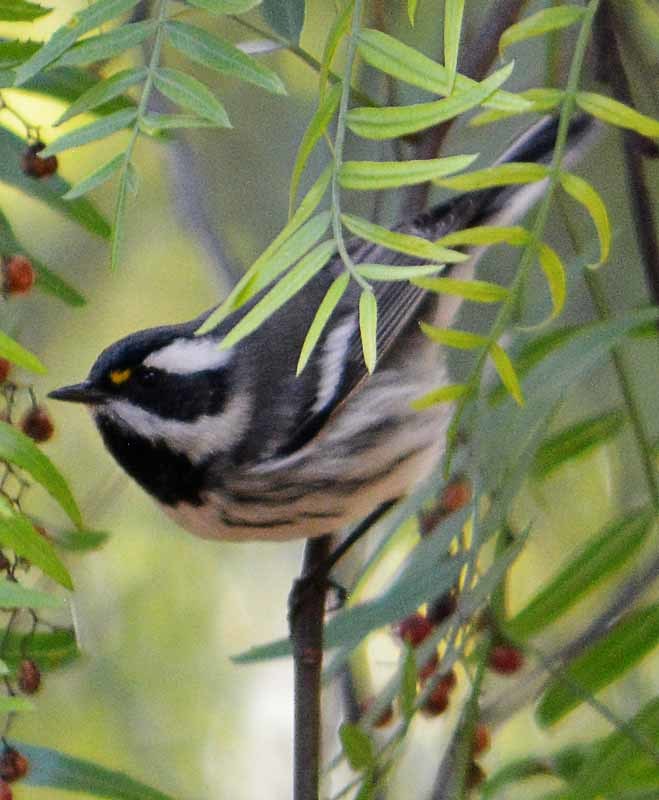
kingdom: Animalia
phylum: Chordata
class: Aves
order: Passeriformes
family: Parulidae
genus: Setophaga
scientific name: Setophaga nigrescens
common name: Black-throated gray warbler
